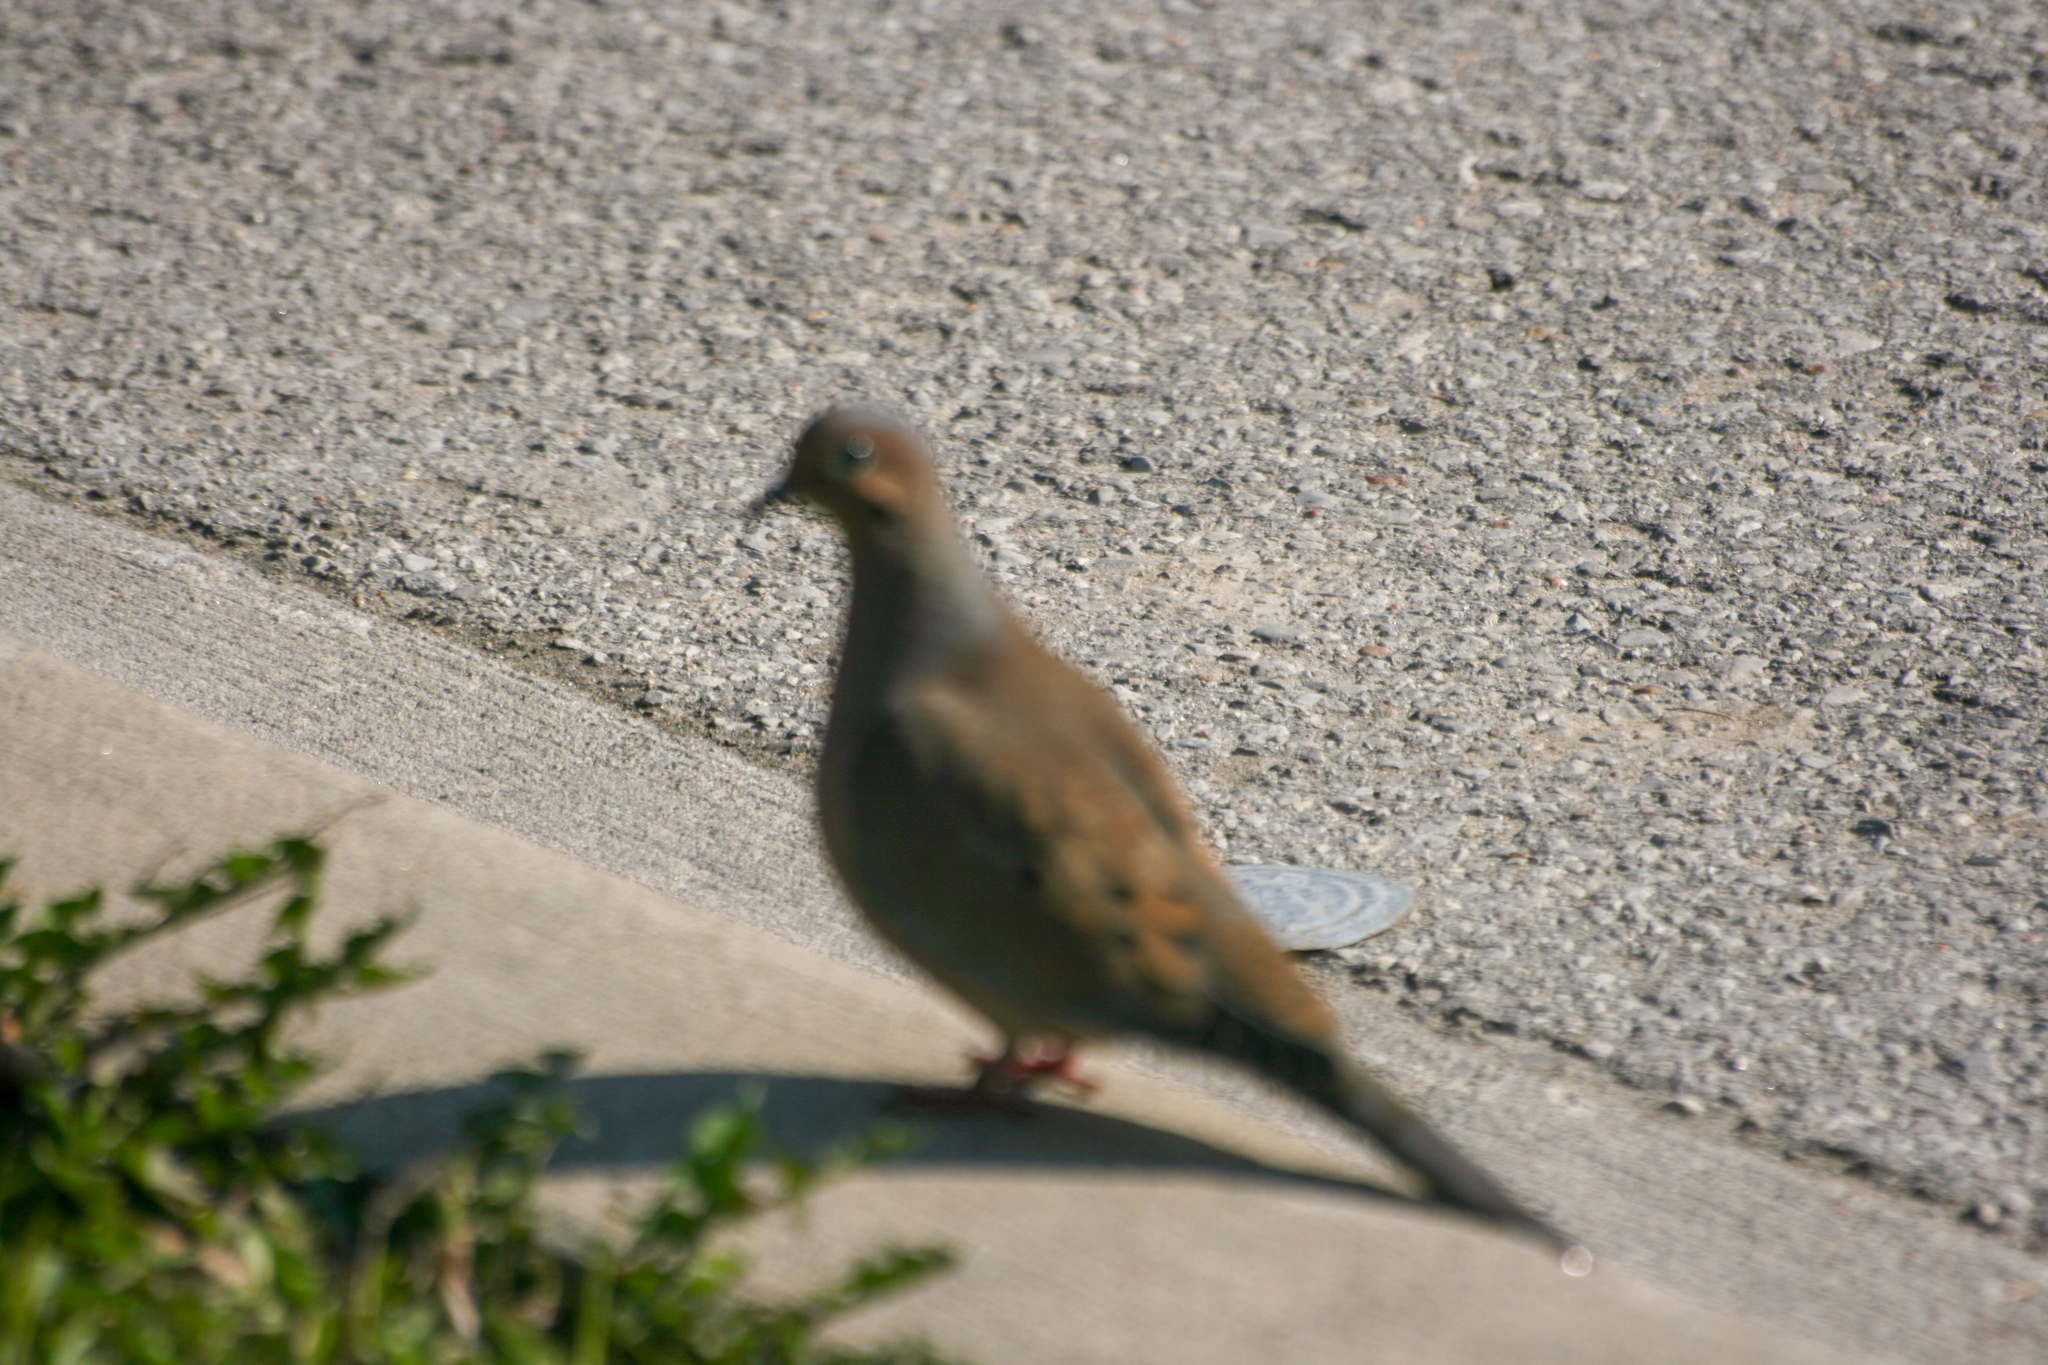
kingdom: Animalia
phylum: Chordata
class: Aves
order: Columbiformes
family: Columbidae
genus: Zenaida
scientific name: Zenaida macroura
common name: Mourning dove
